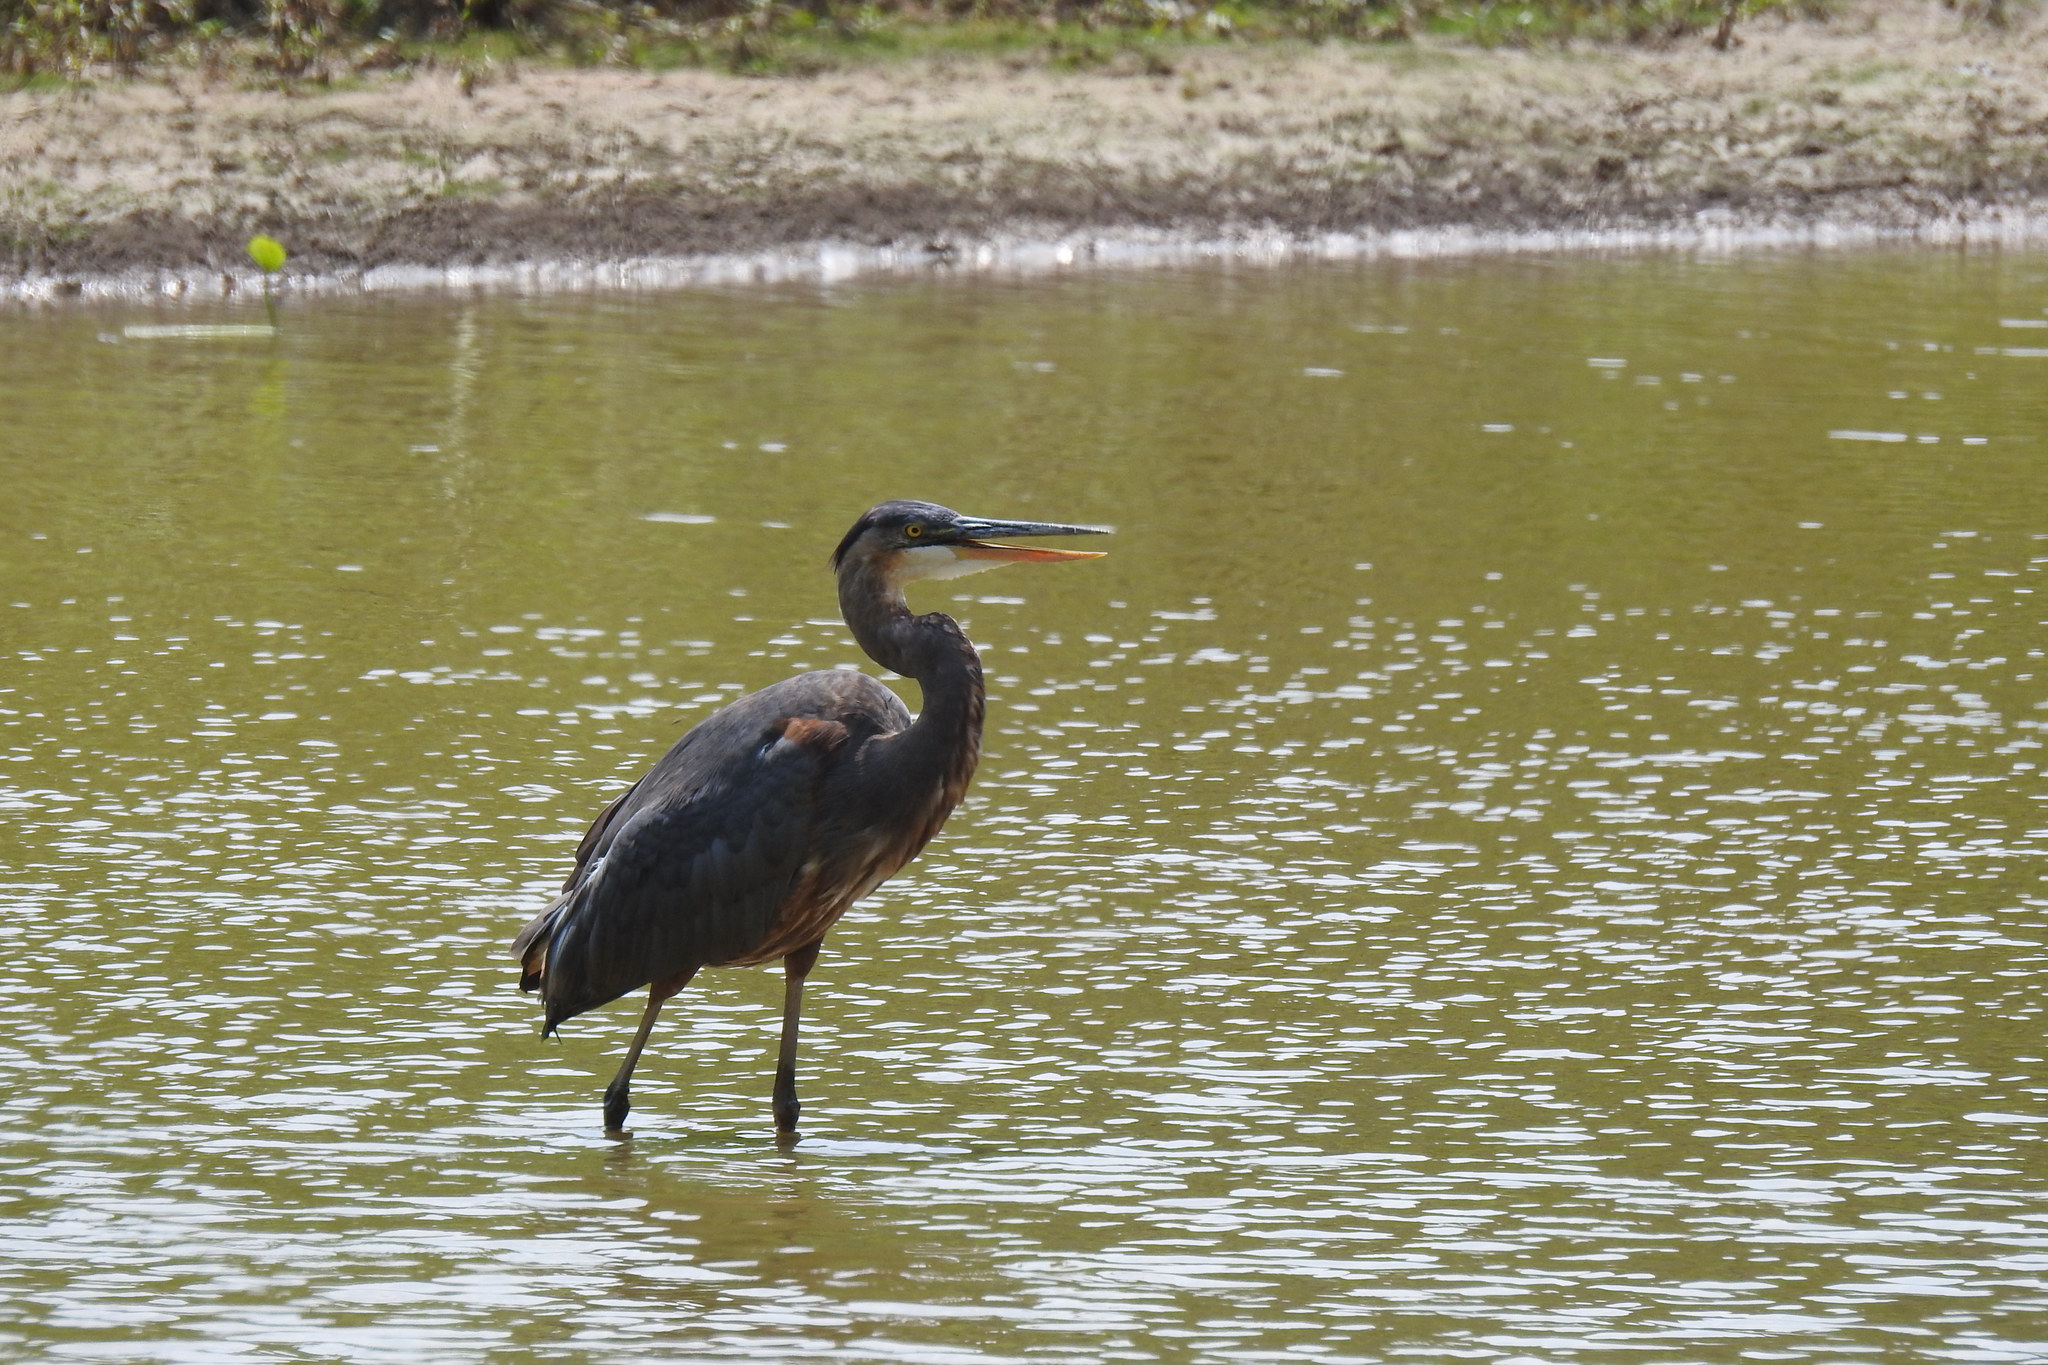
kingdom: Animalia
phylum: Chordata
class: Aves
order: Pelecaniformes
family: Ardeidae
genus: Ardea
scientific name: Ardea herodias
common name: Great blue heron
